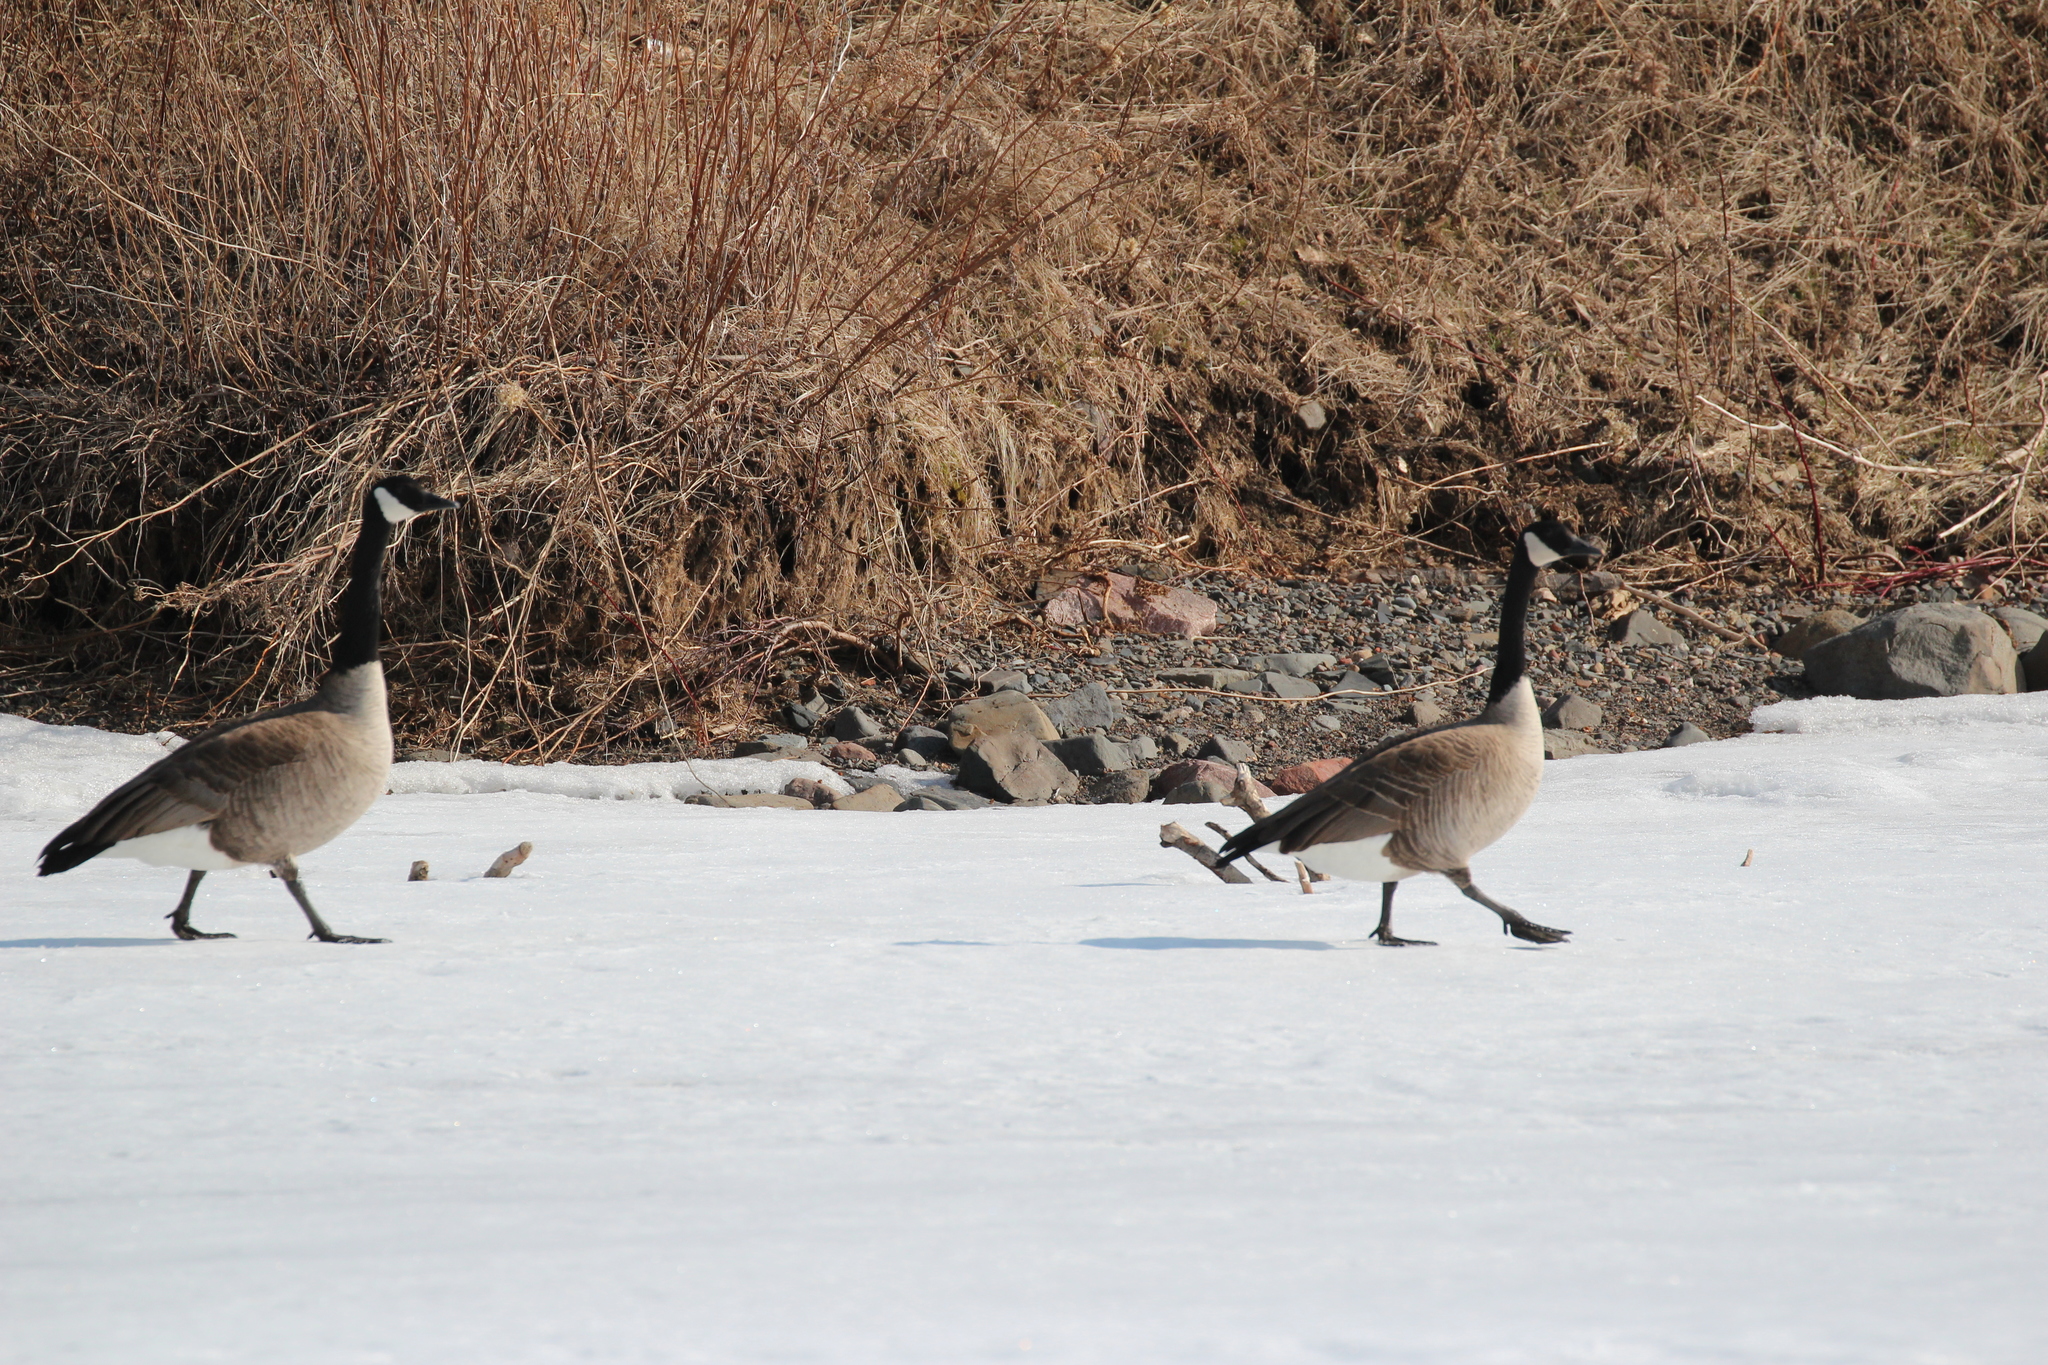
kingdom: Animalia
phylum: Chordata
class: Aves
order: Anseriformes
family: Anatidae
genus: Branta
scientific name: Branta canadensis
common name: Canada goose
